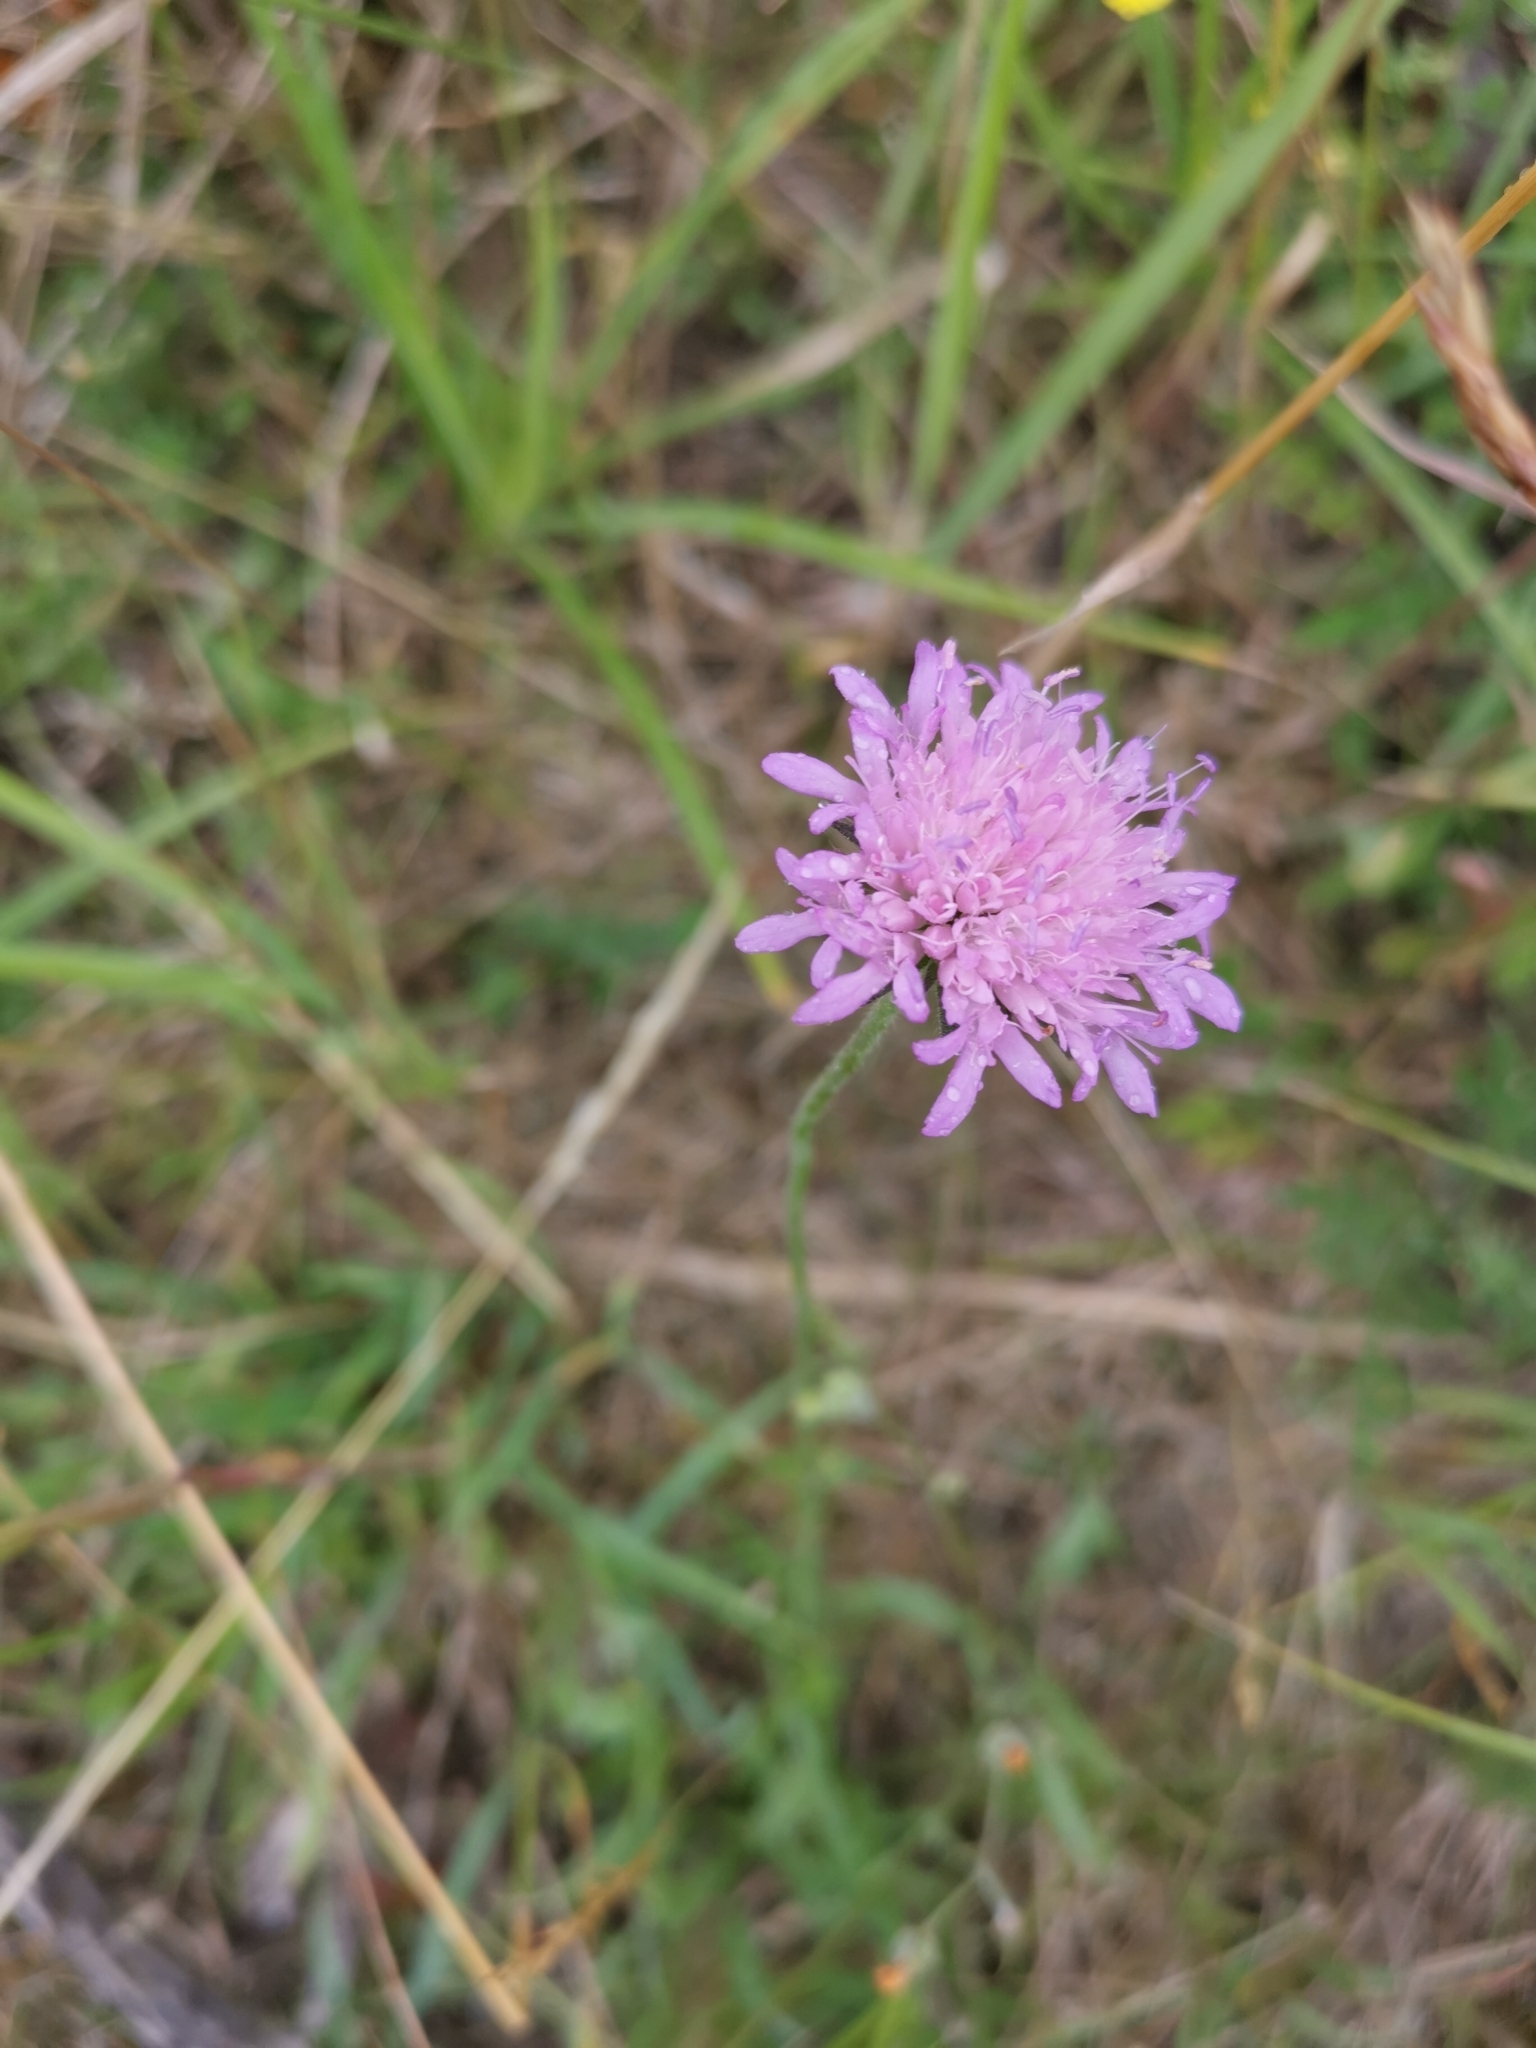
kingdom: Plantae
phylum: Tracheophyta
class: Magnoliopsida
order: Dipsacales
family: Caprifoliaceae
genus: Knautia
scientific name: Knautia arvensis
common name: Field scabiosa
